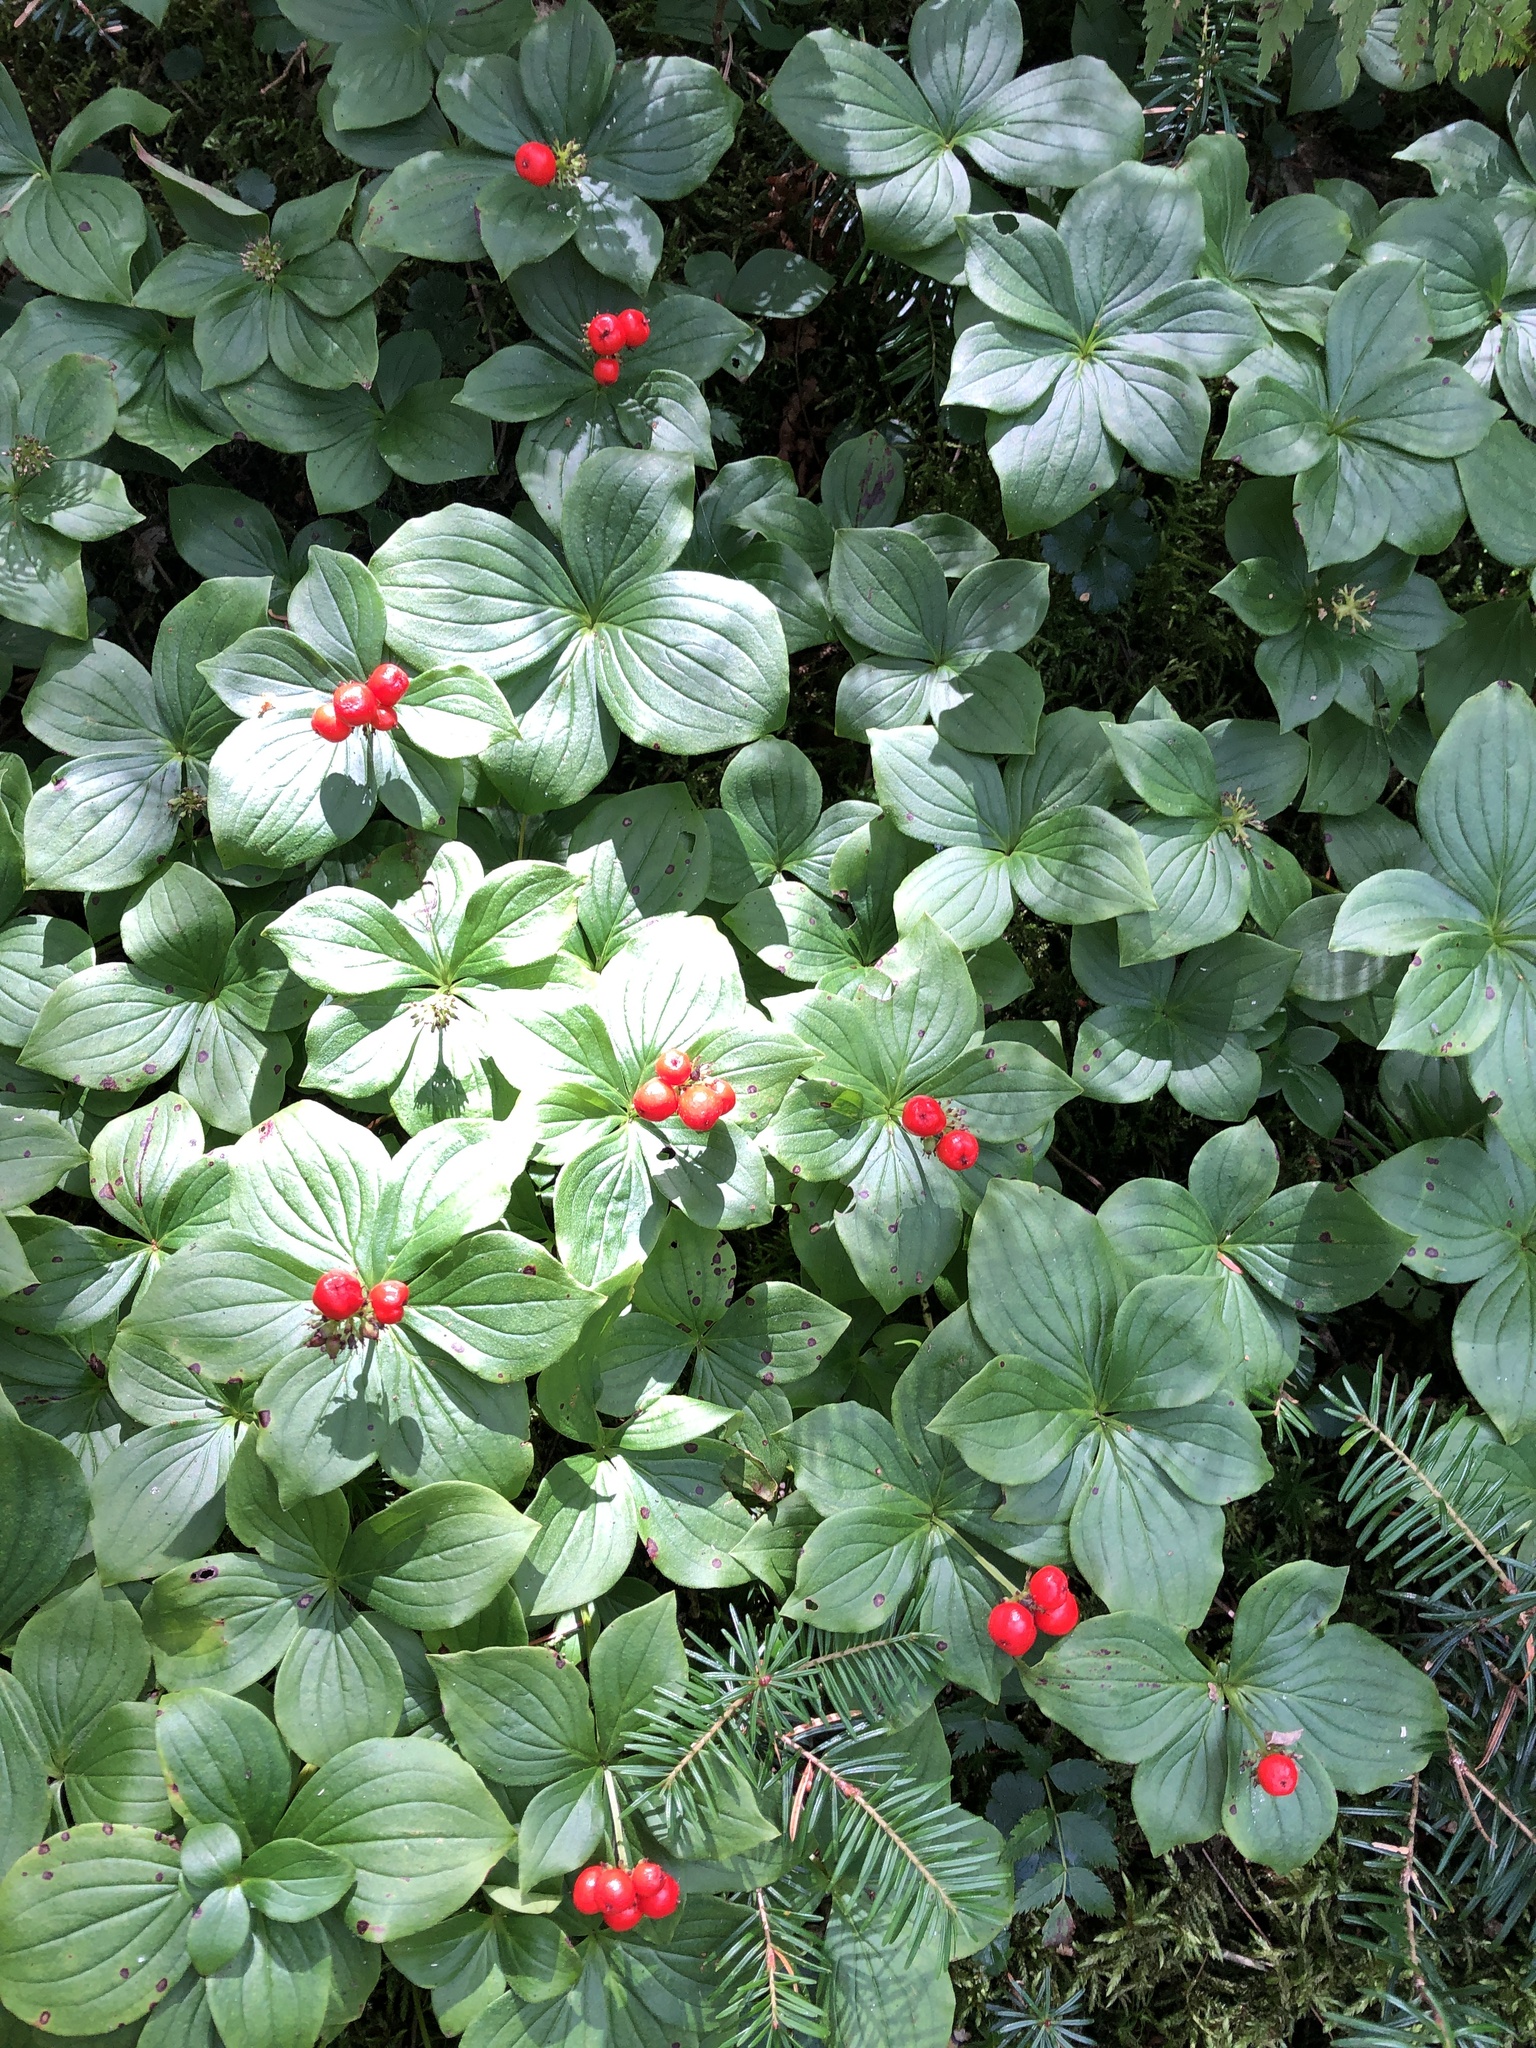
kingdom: Plantae
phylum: Tracheophyta
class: Magnoliopsida
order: Cornales
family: Cornaceae
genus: Cornus
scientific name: Cornus canadensis
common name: Creeping dogwood
